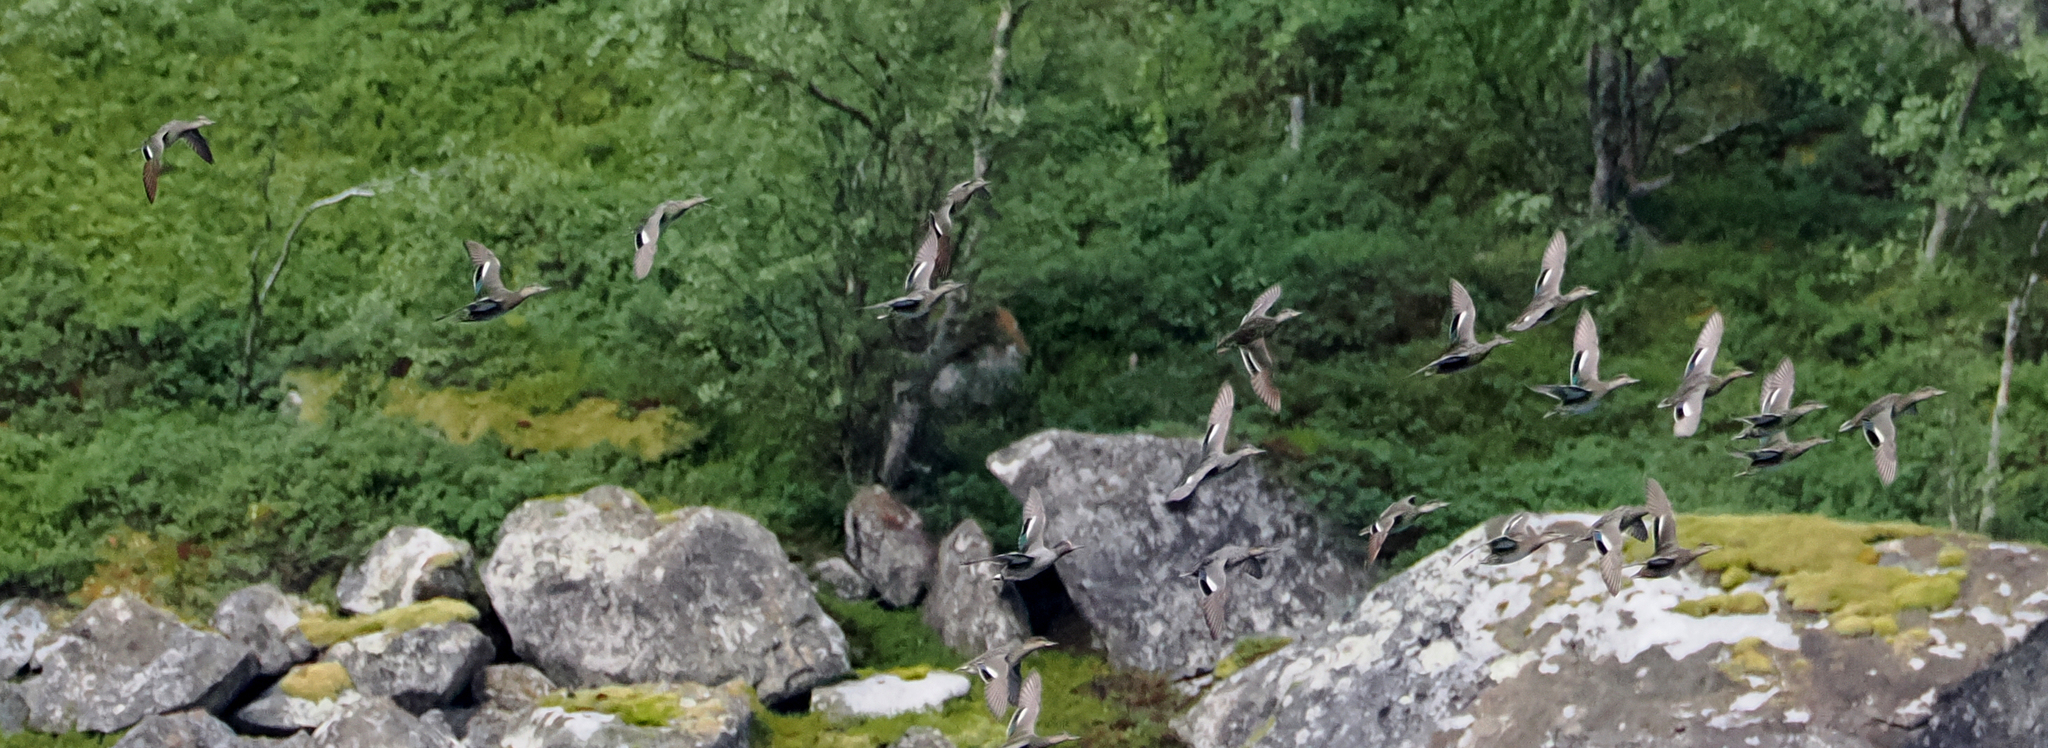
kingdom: Animalia
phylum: Chordata
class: Aves
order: Anseriformes
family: Anatidae
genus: Anas
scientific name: Anas crecca
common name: Eurasian teal
